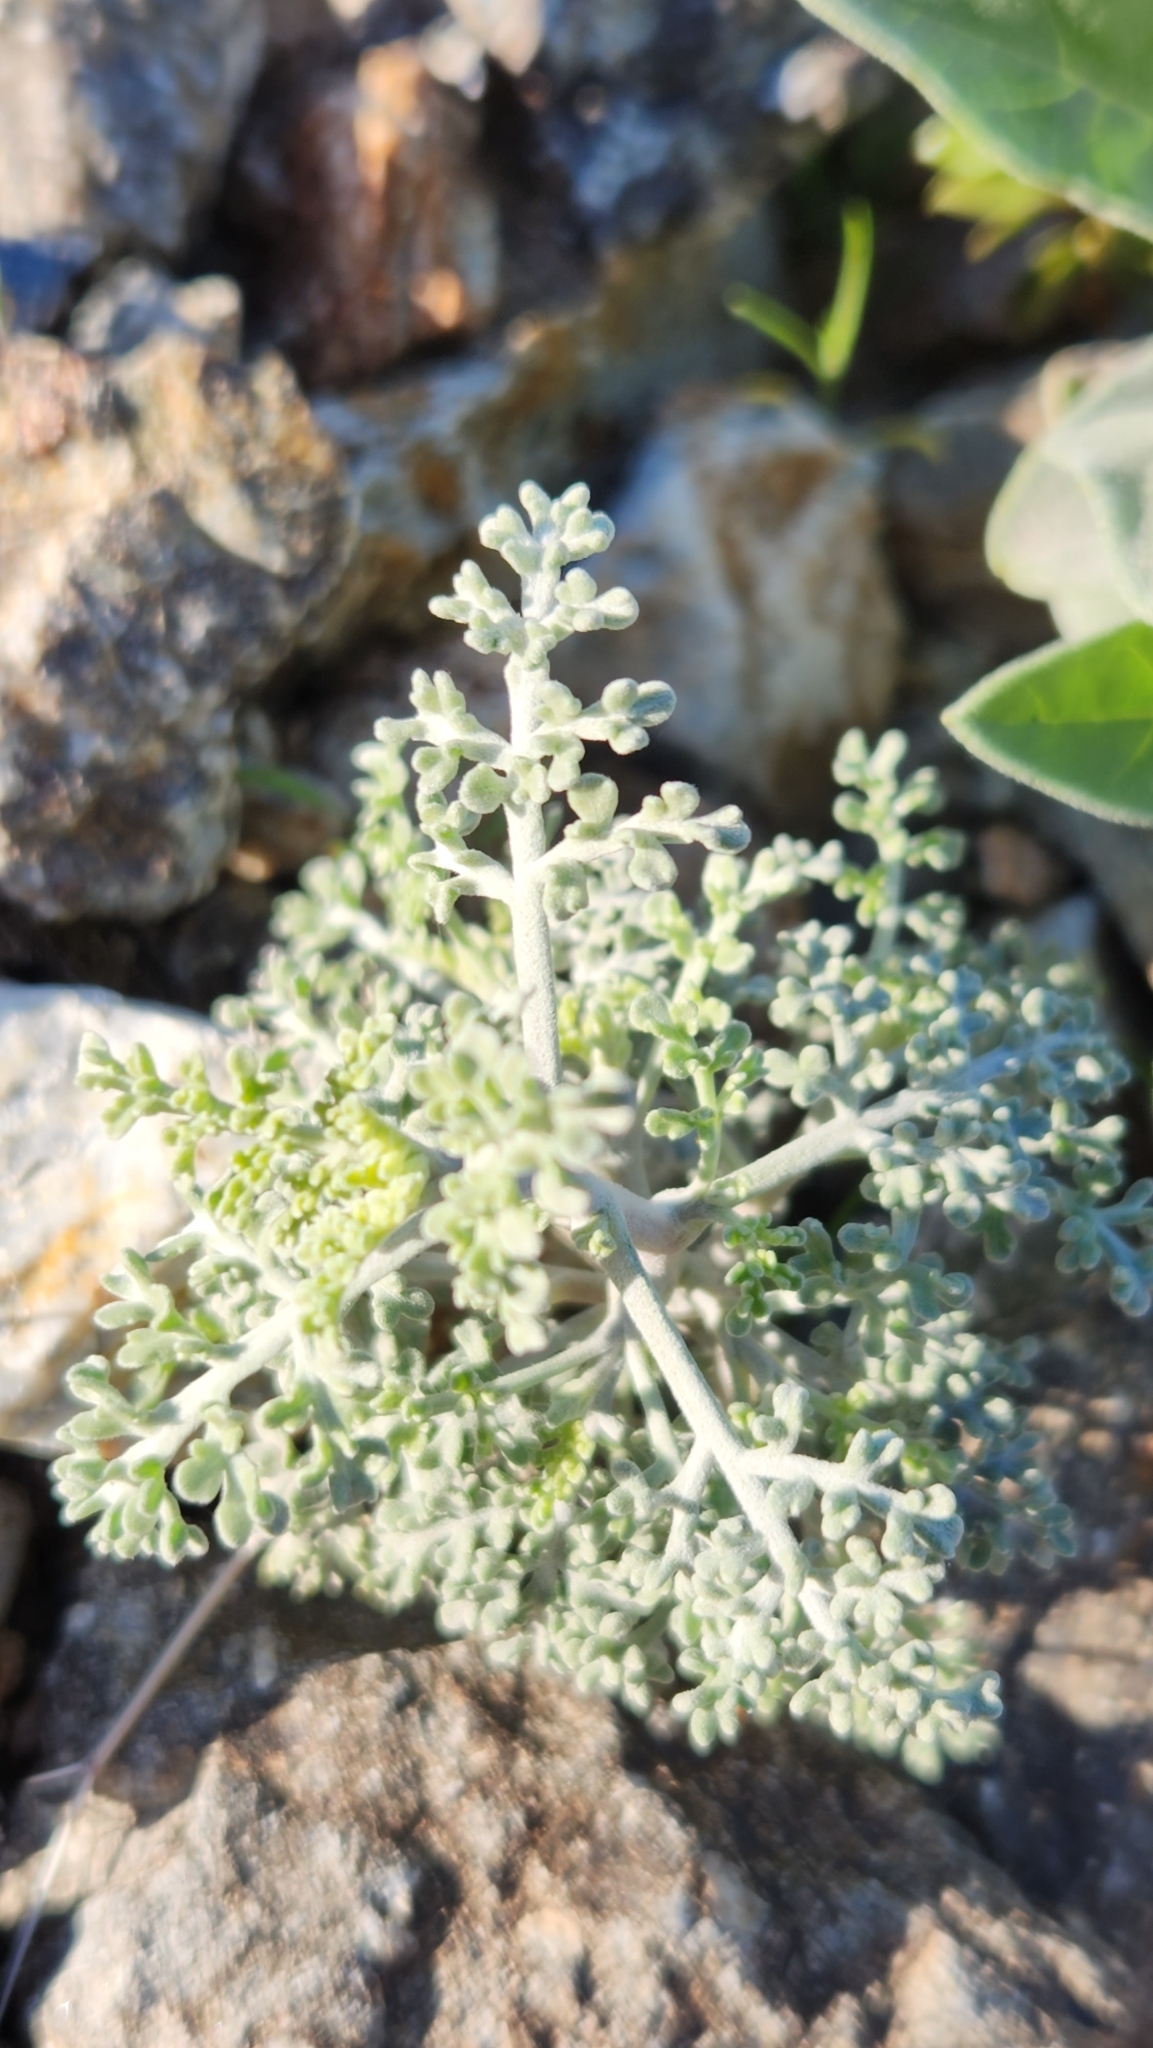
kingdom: Plantae
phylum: Tracheophyta
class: Magnoliopsida
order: Asterales
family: Asteraceae
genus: Ambrosia
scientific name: Ambrosia dumosa
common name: Bur-sage
